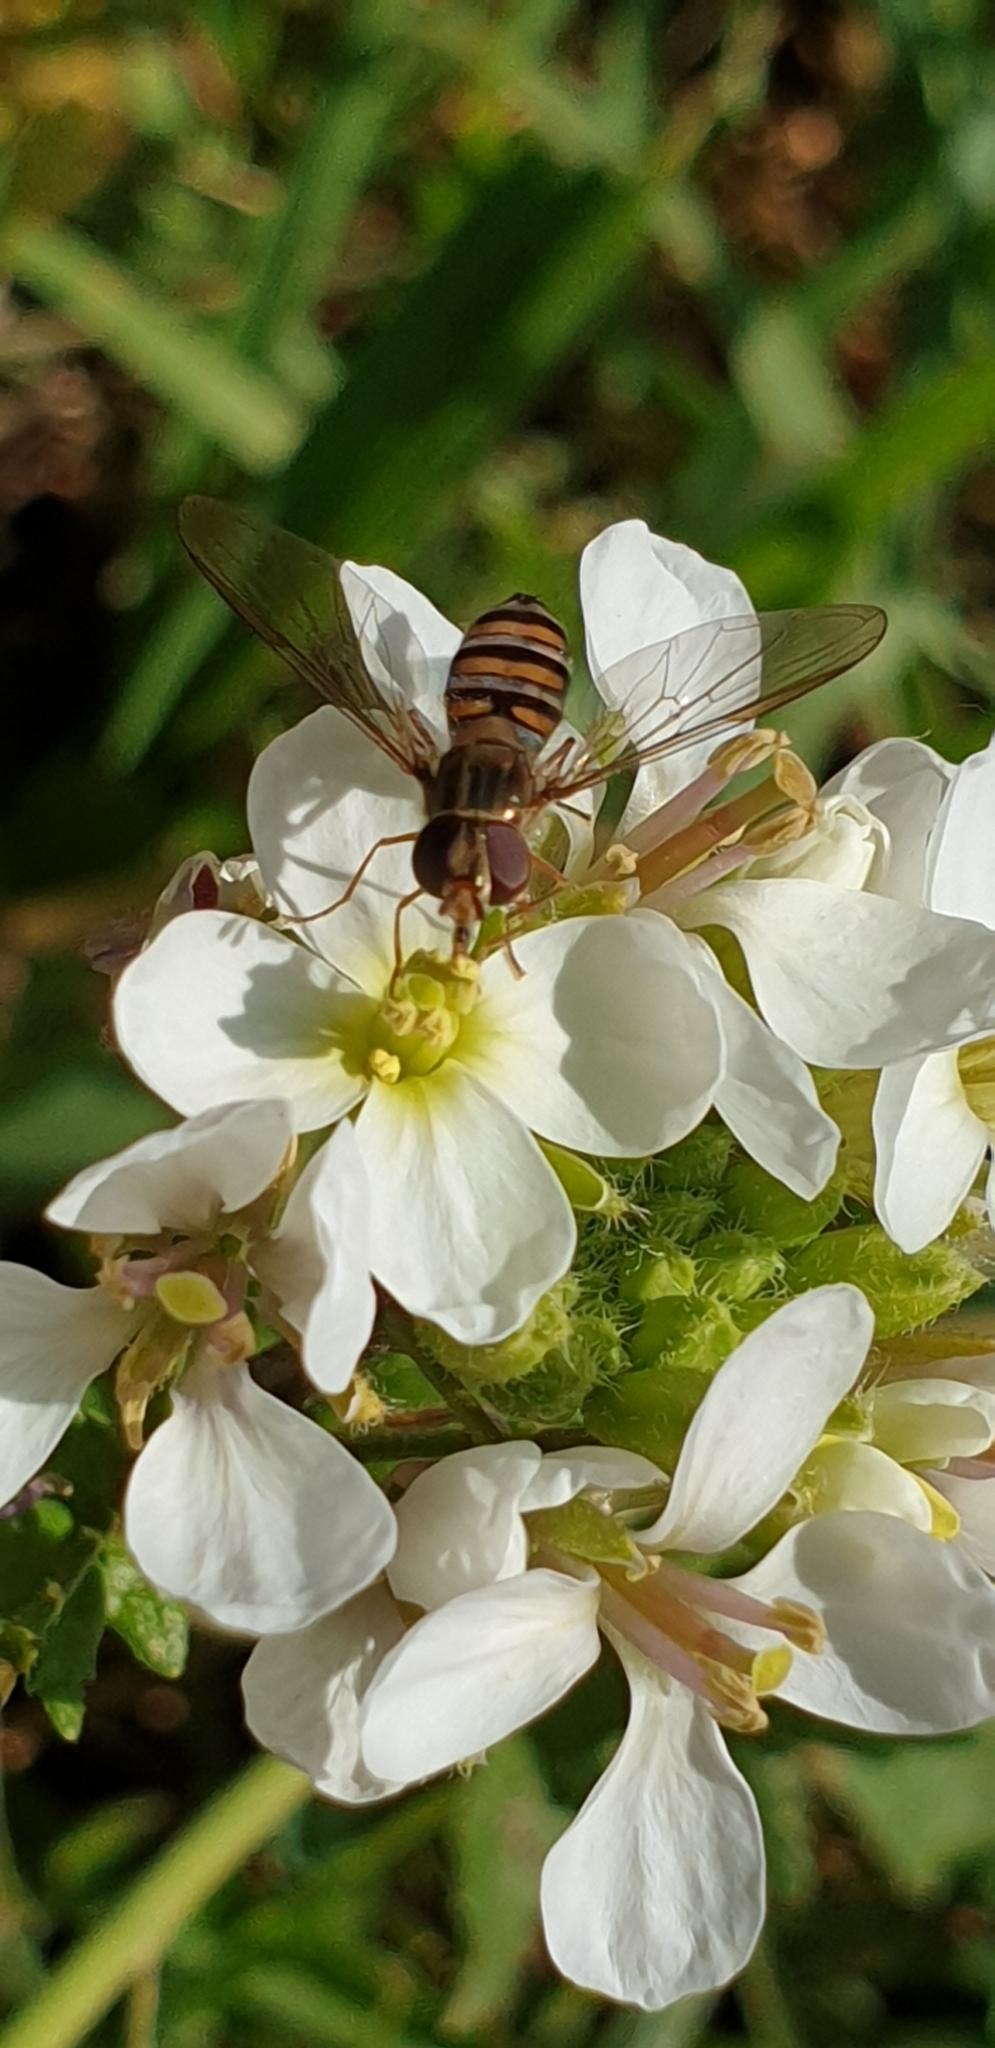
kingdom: Animalia
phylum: Arthropoda
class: Insecta
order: Diptera
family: Syrphidae
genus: Episyrphus
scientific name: Episyrphus balteatus
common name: Marmalade hoverfly
